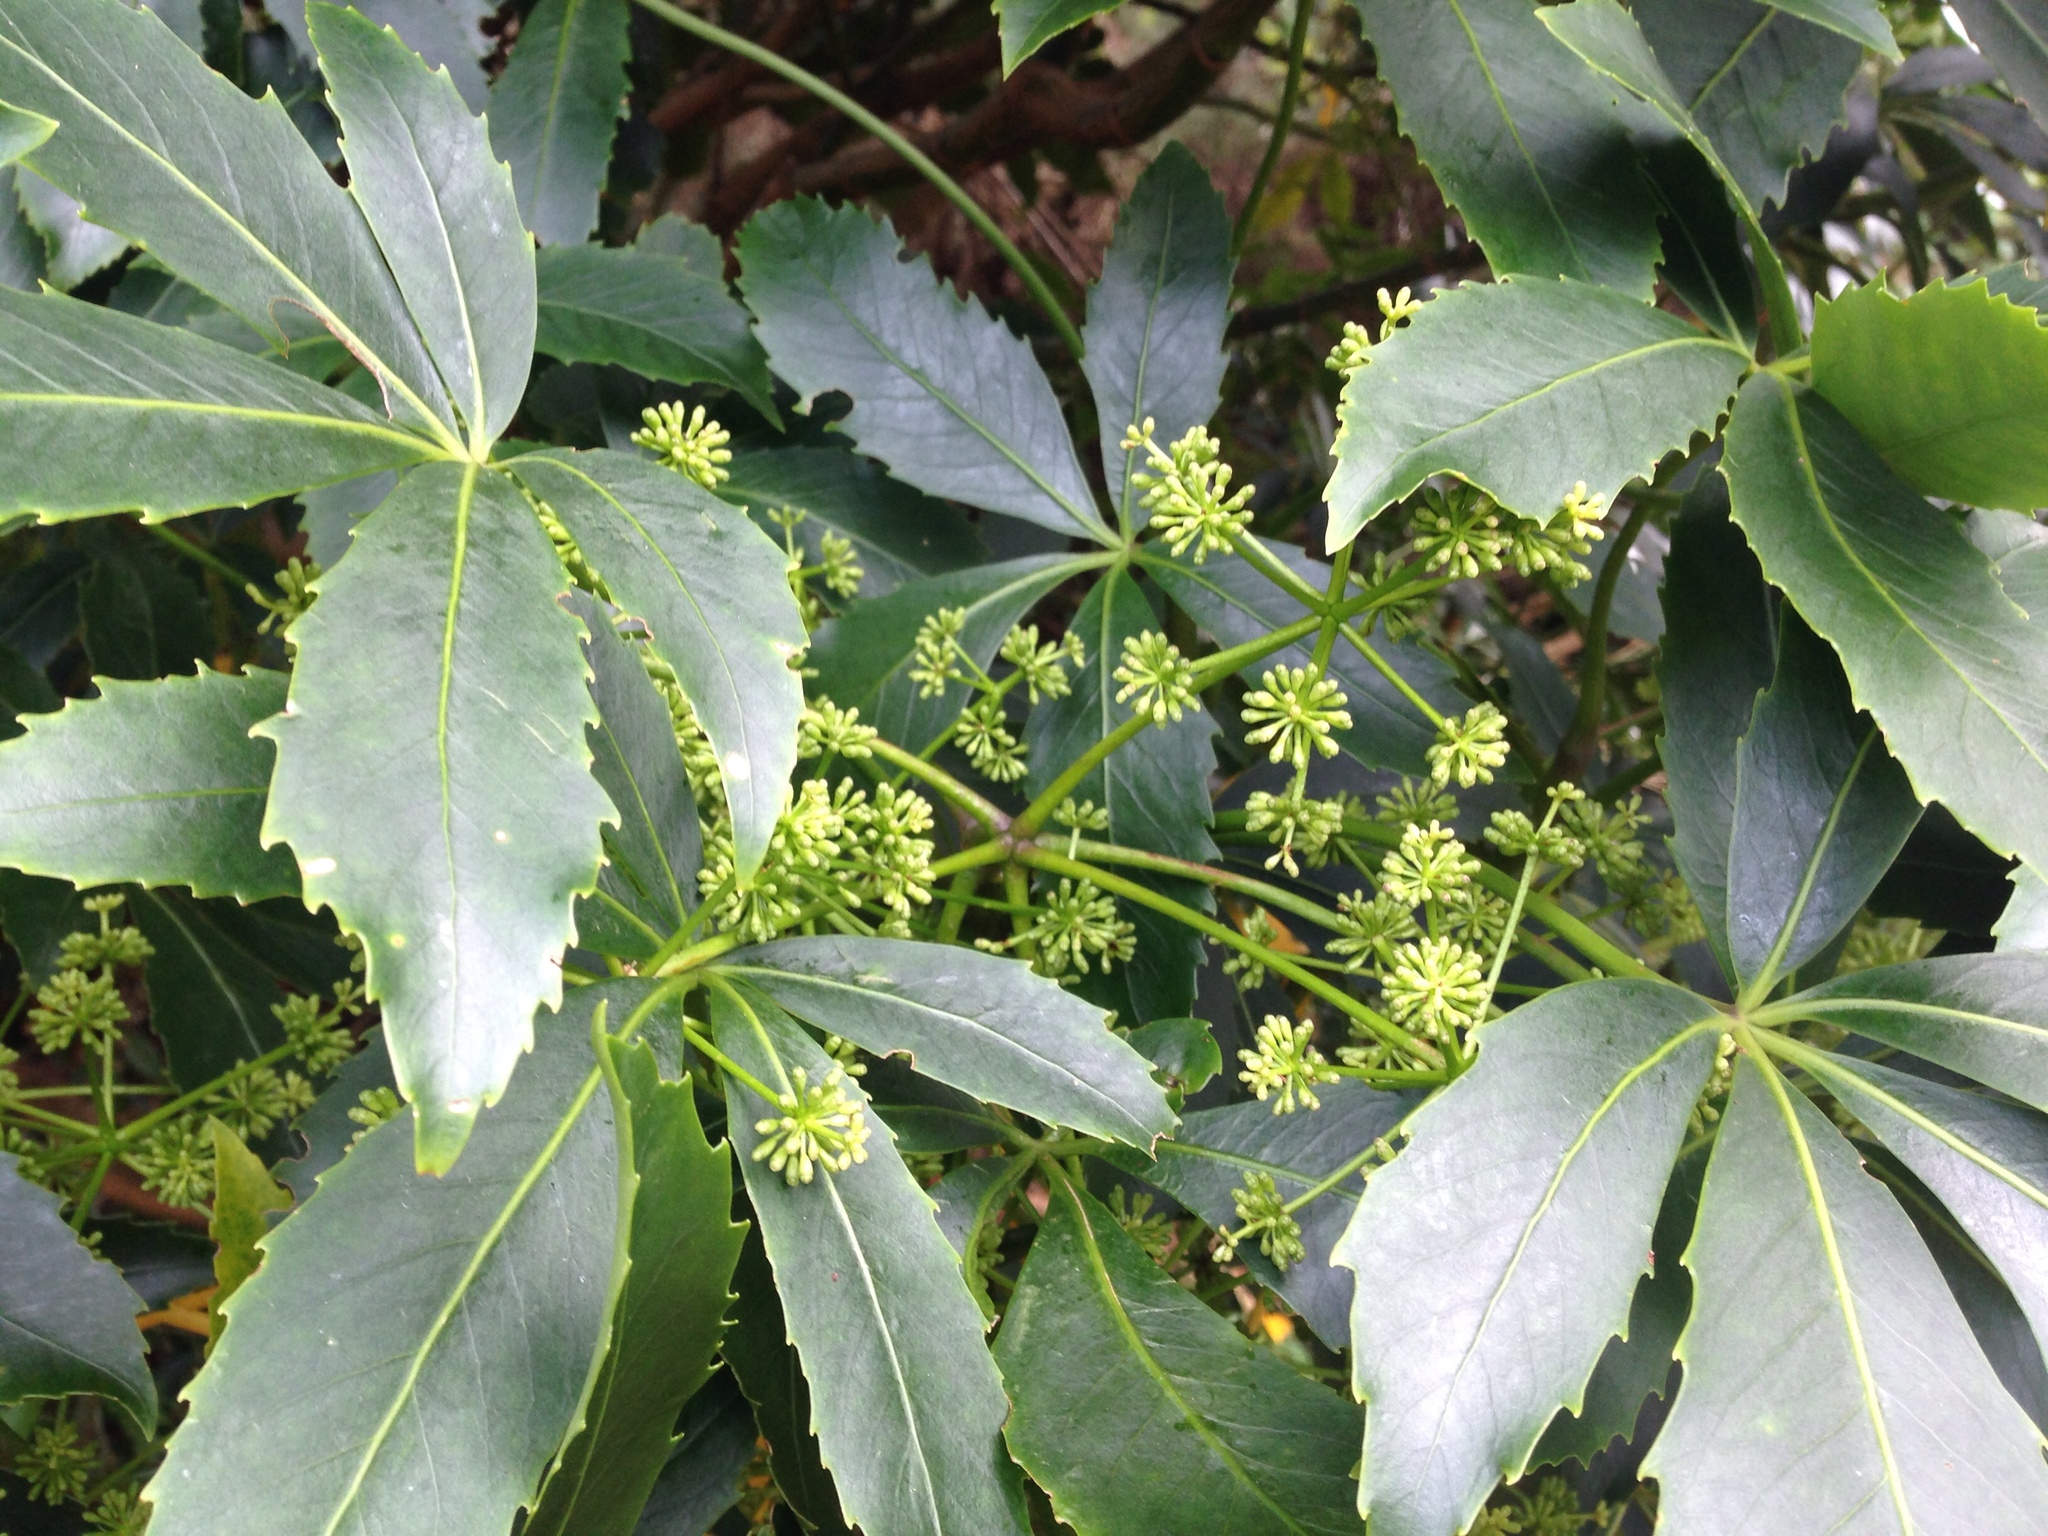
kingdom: Plantae
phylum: Tracheophyta
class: Magnoliopsida
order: Apiales
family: Araliaceae
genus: Neopanax
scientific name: Neopanax colensoi
